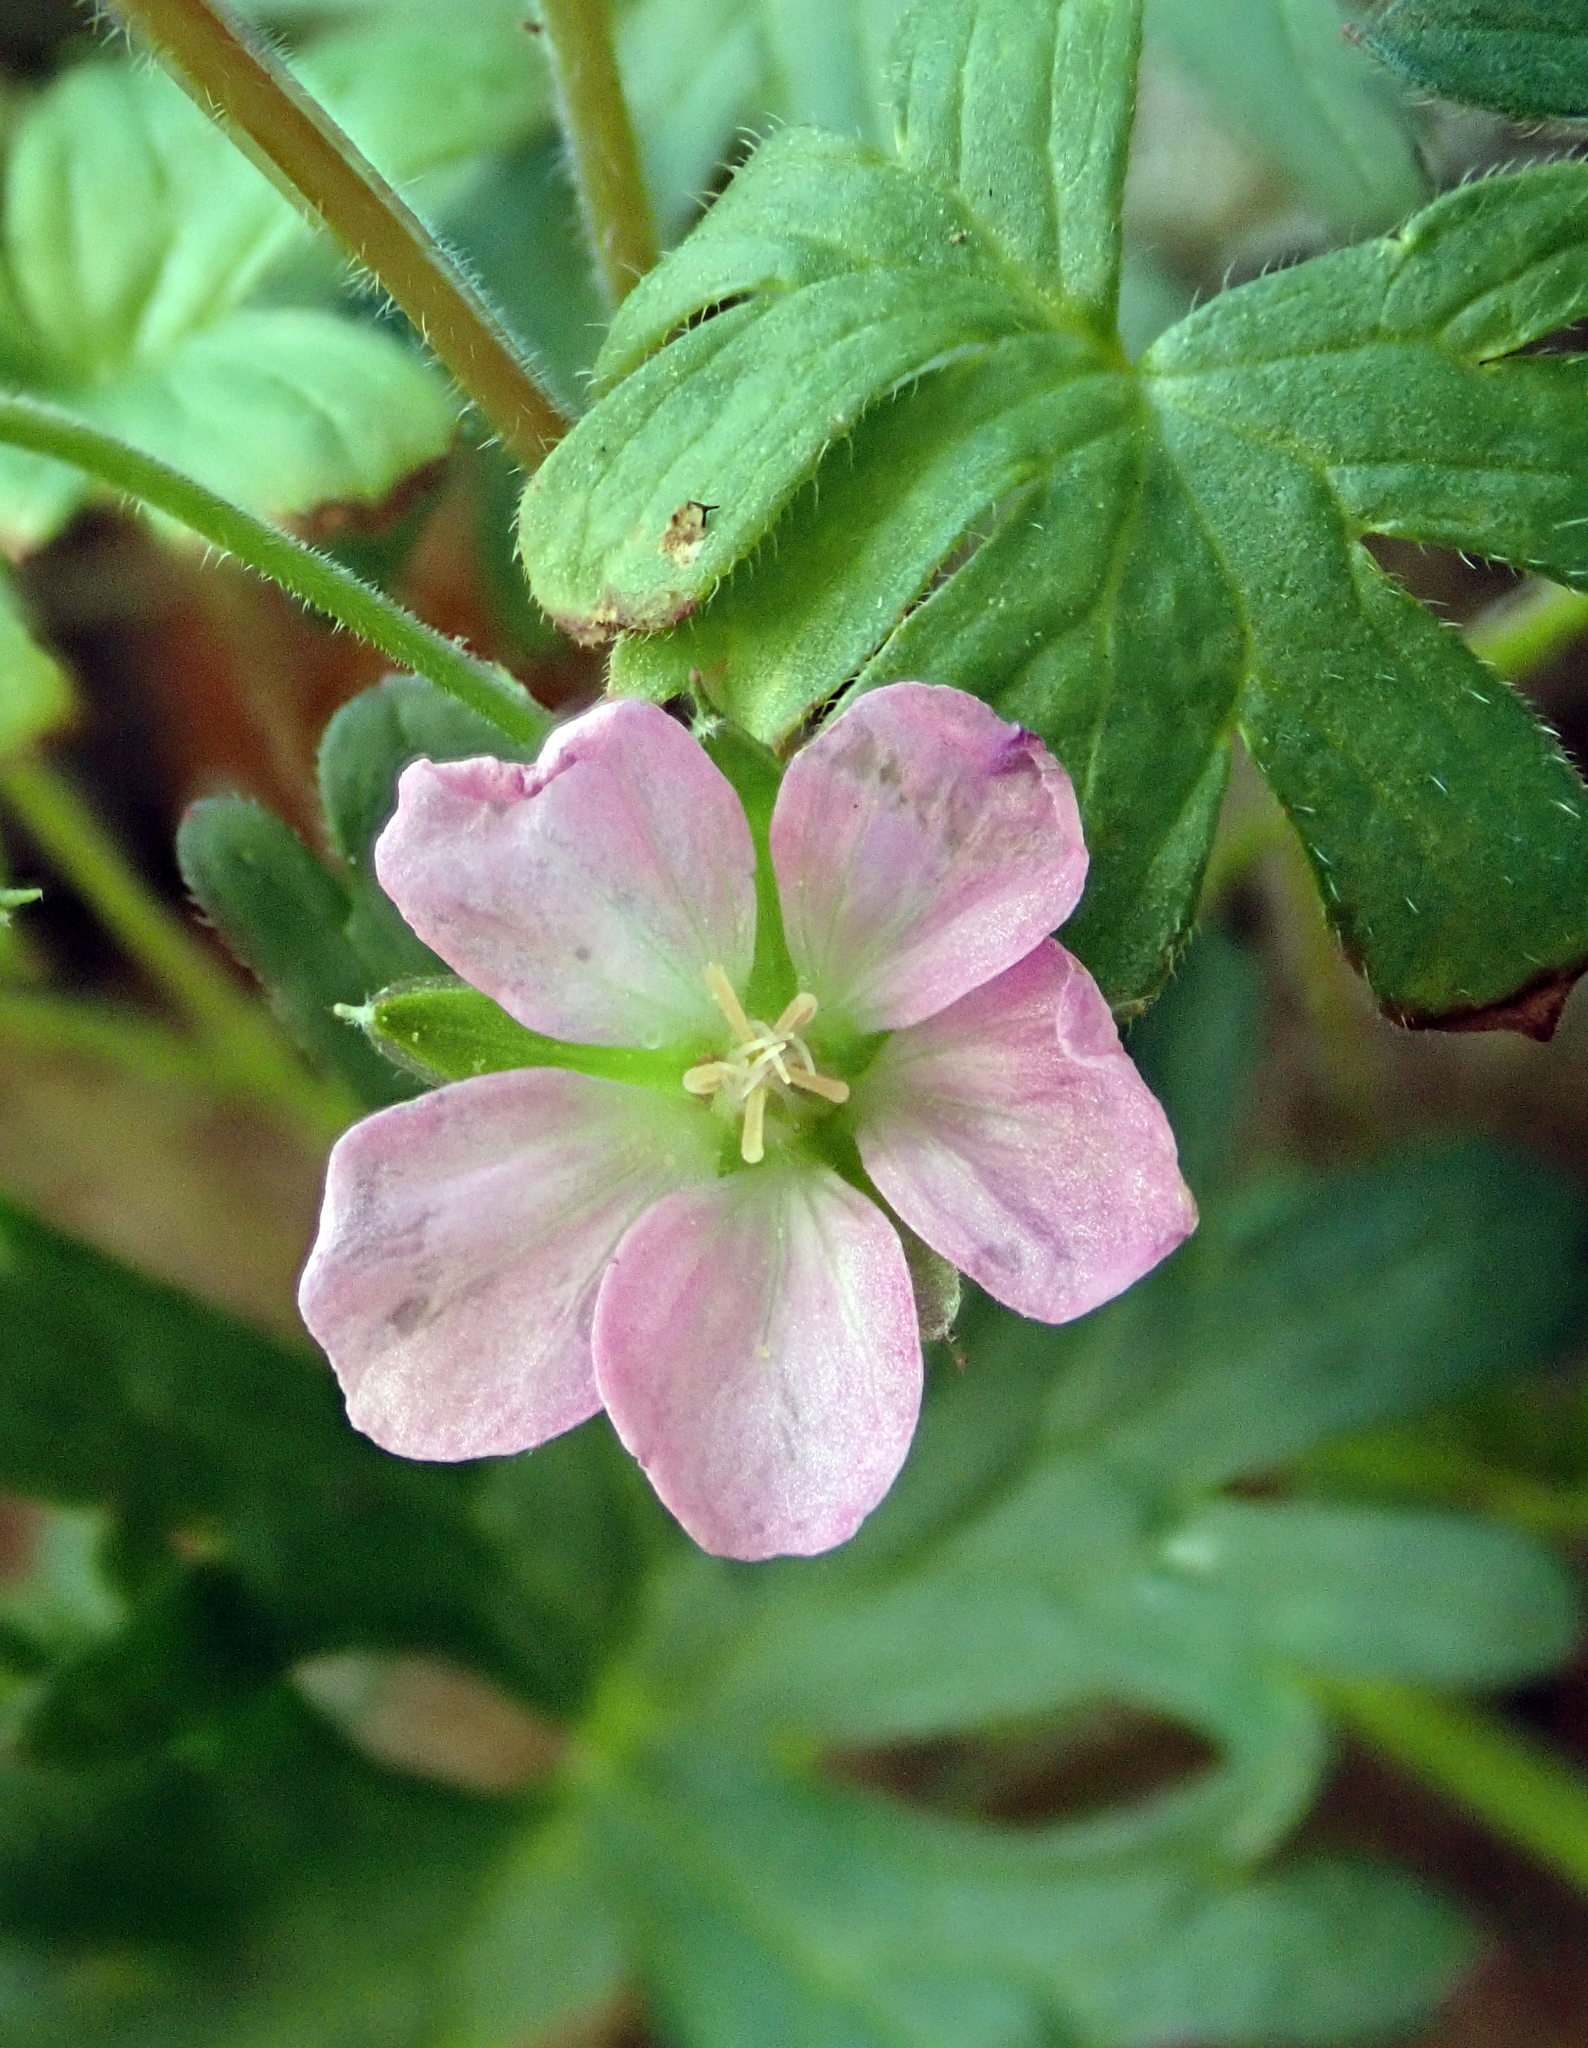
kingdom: Plantae
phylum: Tracheophyta
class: Magnoliopsida
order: Geraniales
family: Geraniaceae
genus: Geranium
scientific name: Geranium solanderi
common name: Solander's geranium
